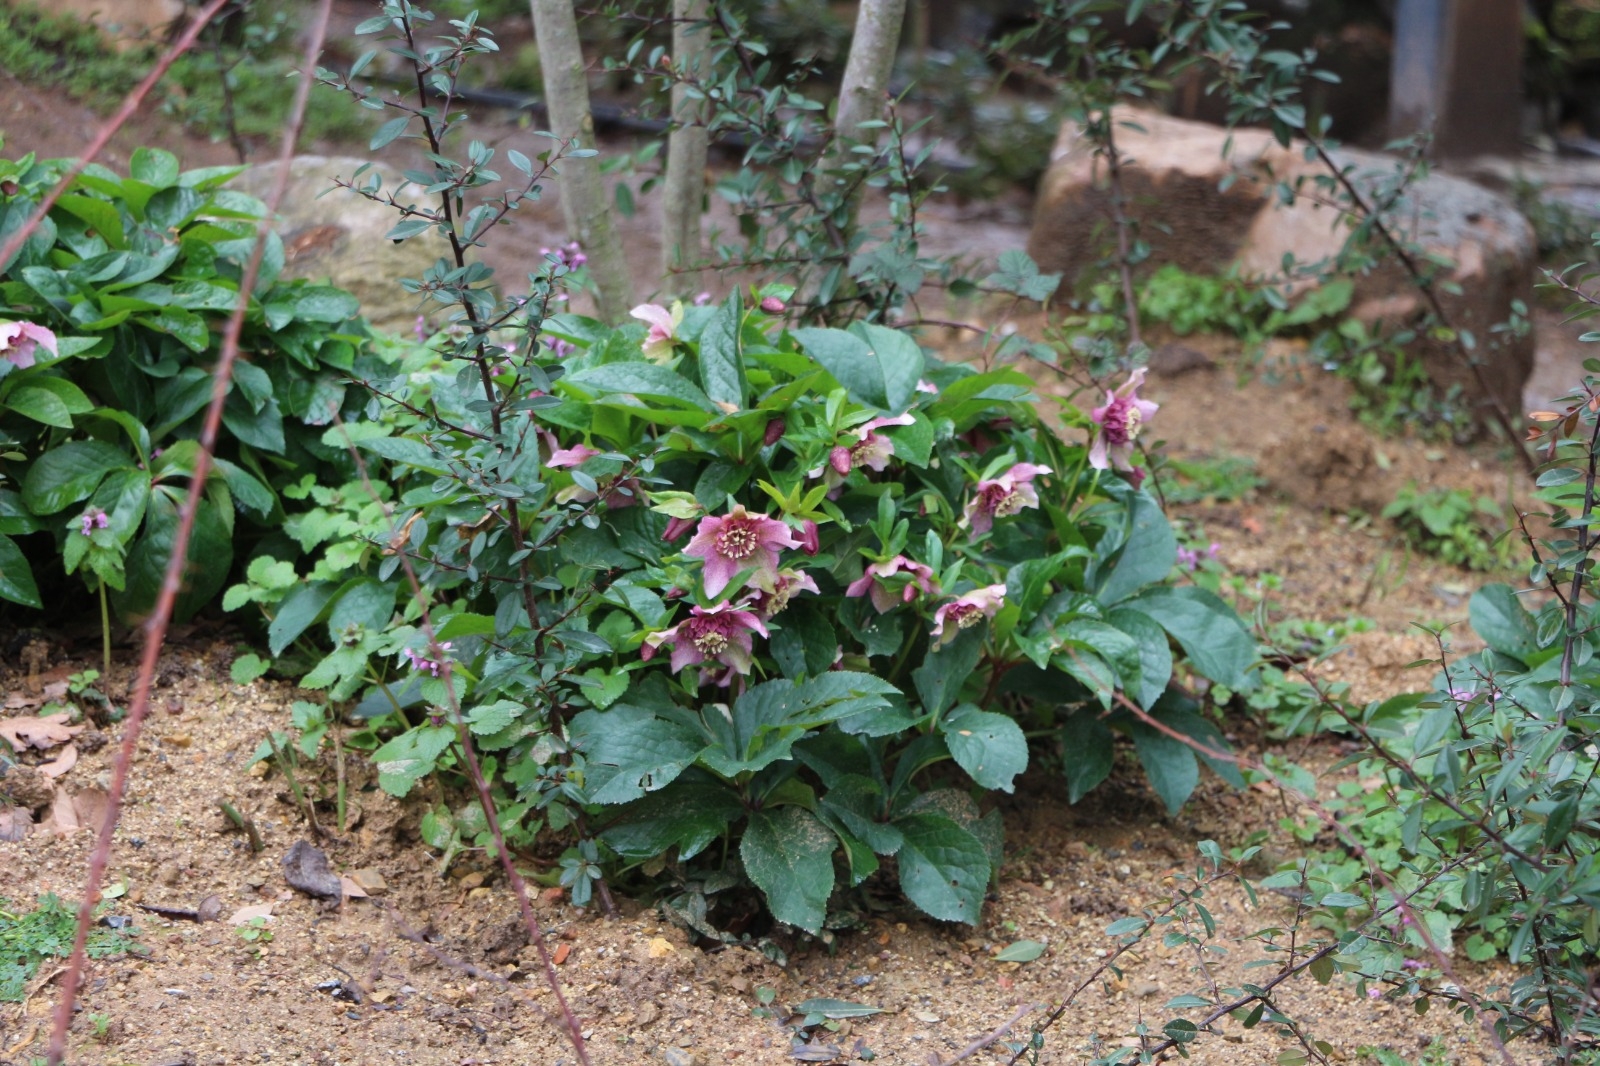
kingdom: Plantae
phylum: Tracheophyta
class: Magnoliopsida
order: Ranunculales
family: Ranunculaceae
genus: Helleborus
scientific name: Helleborus orientalis
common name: Lenten-rose
